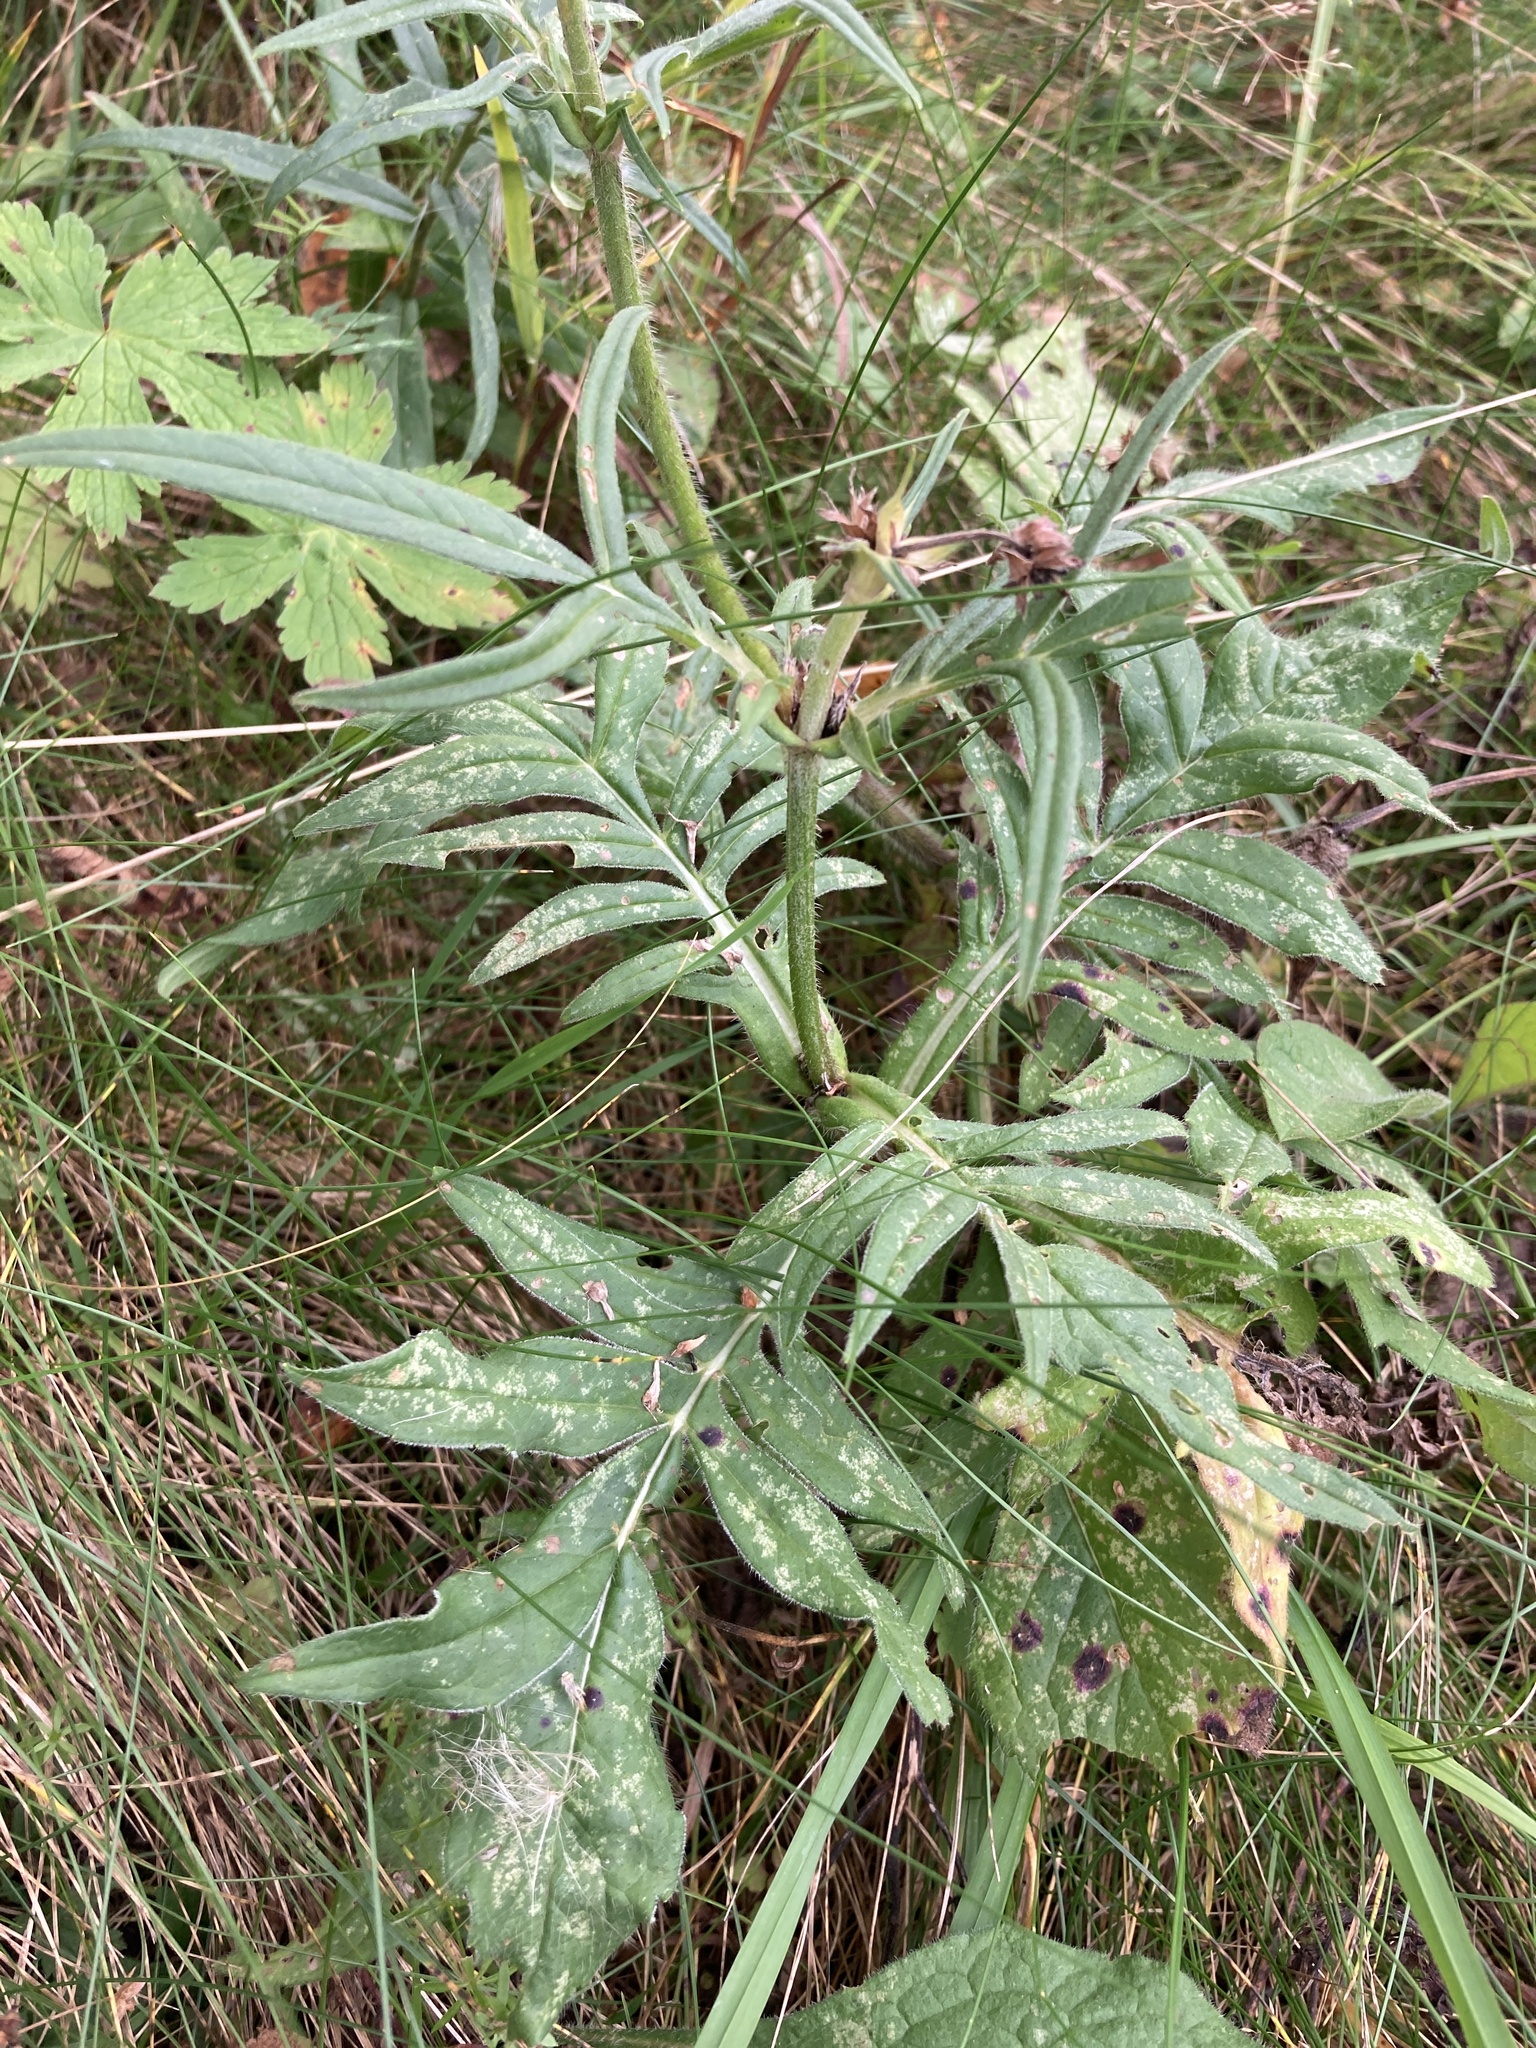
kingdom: Plantae
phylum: Tracheophyta
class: Magnoliopsida
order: Dipsacales
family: Caprifoliaceae
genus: Knautia
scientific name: Knautia arvensis
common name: Field scabiosa
